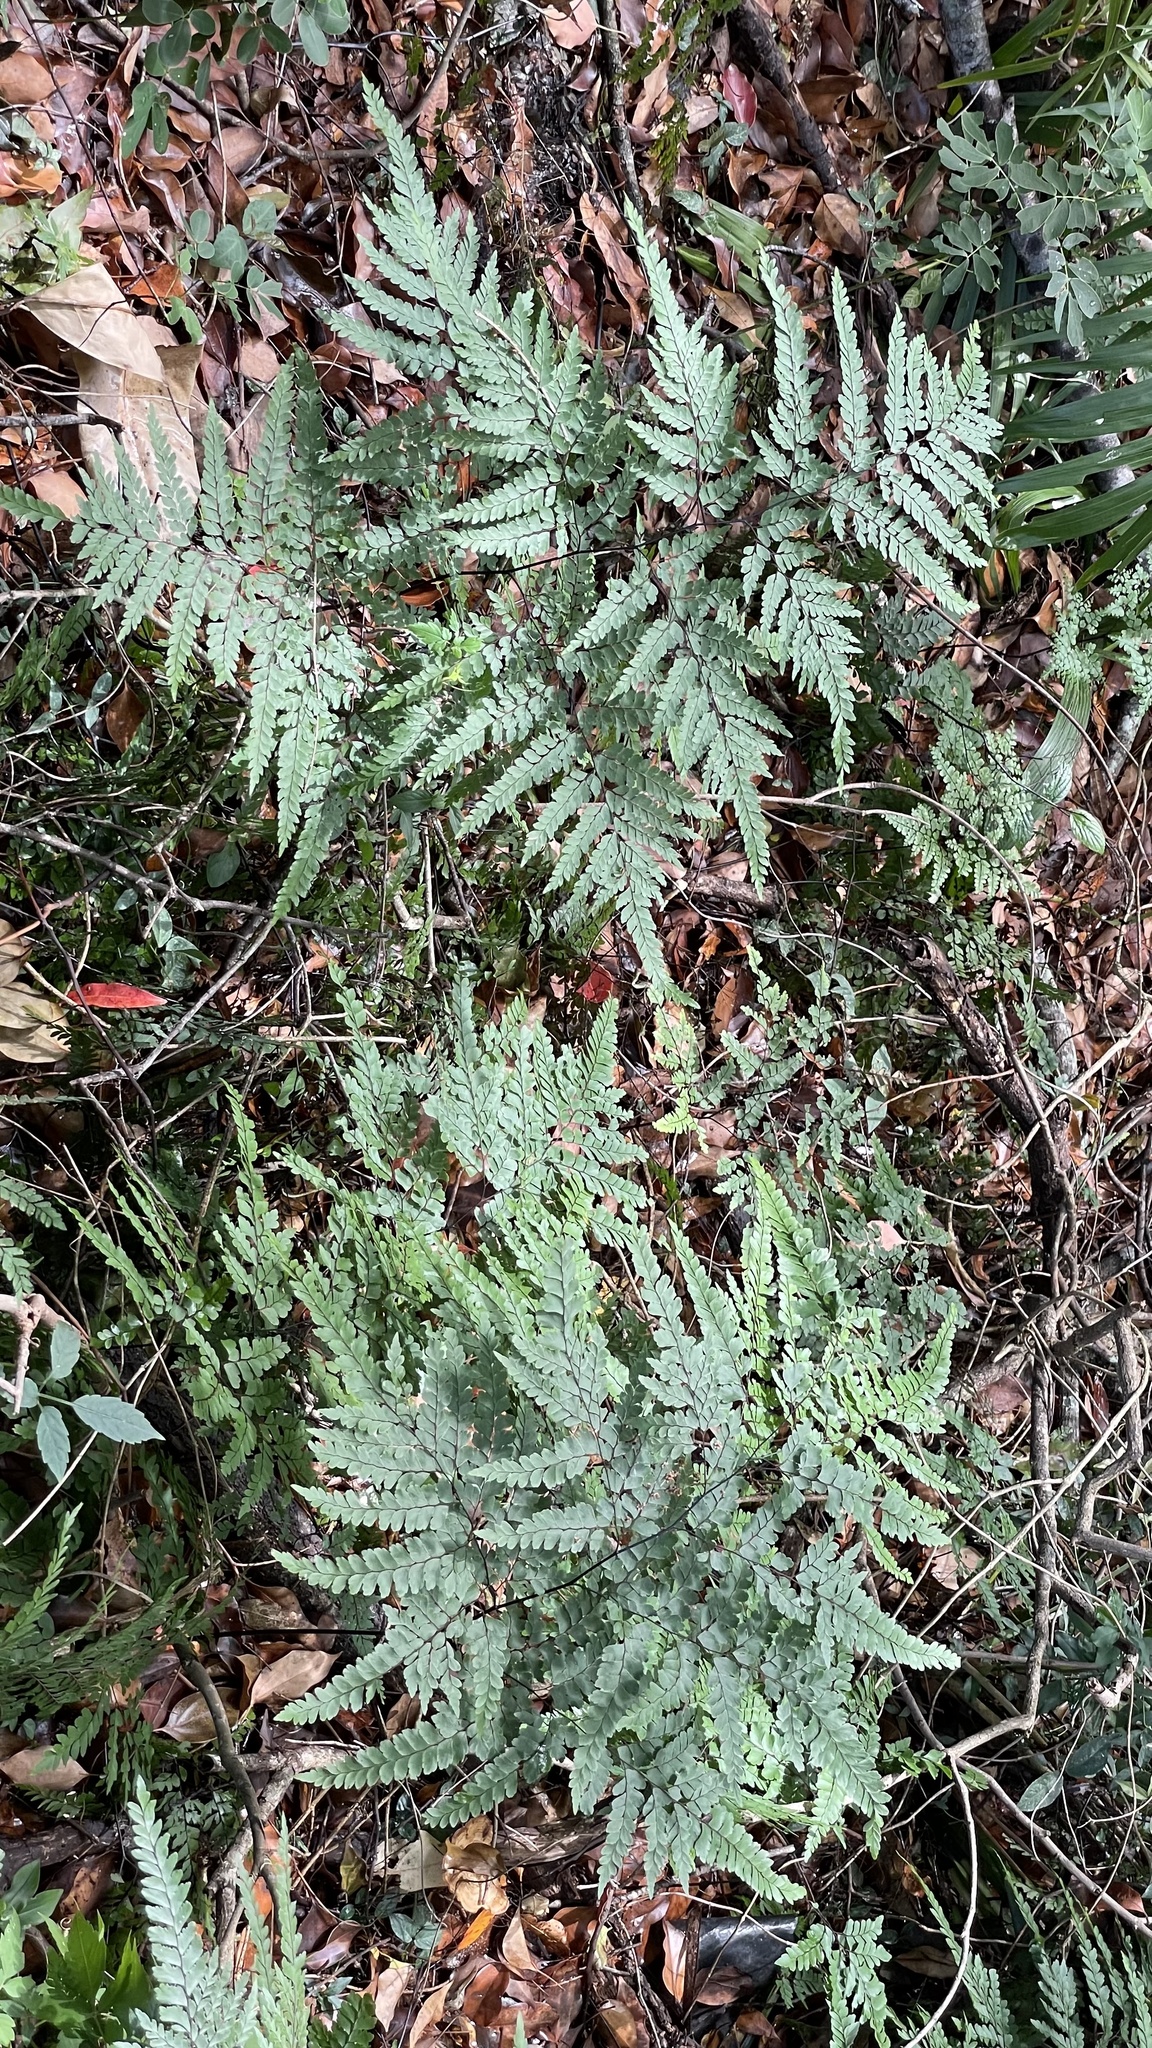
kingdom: Plantae
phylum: Tracheophyta
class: Polypodiopsida
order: Polypodiales
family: Pteridaceae
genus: Adiantum
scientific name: Adiantum formosum
